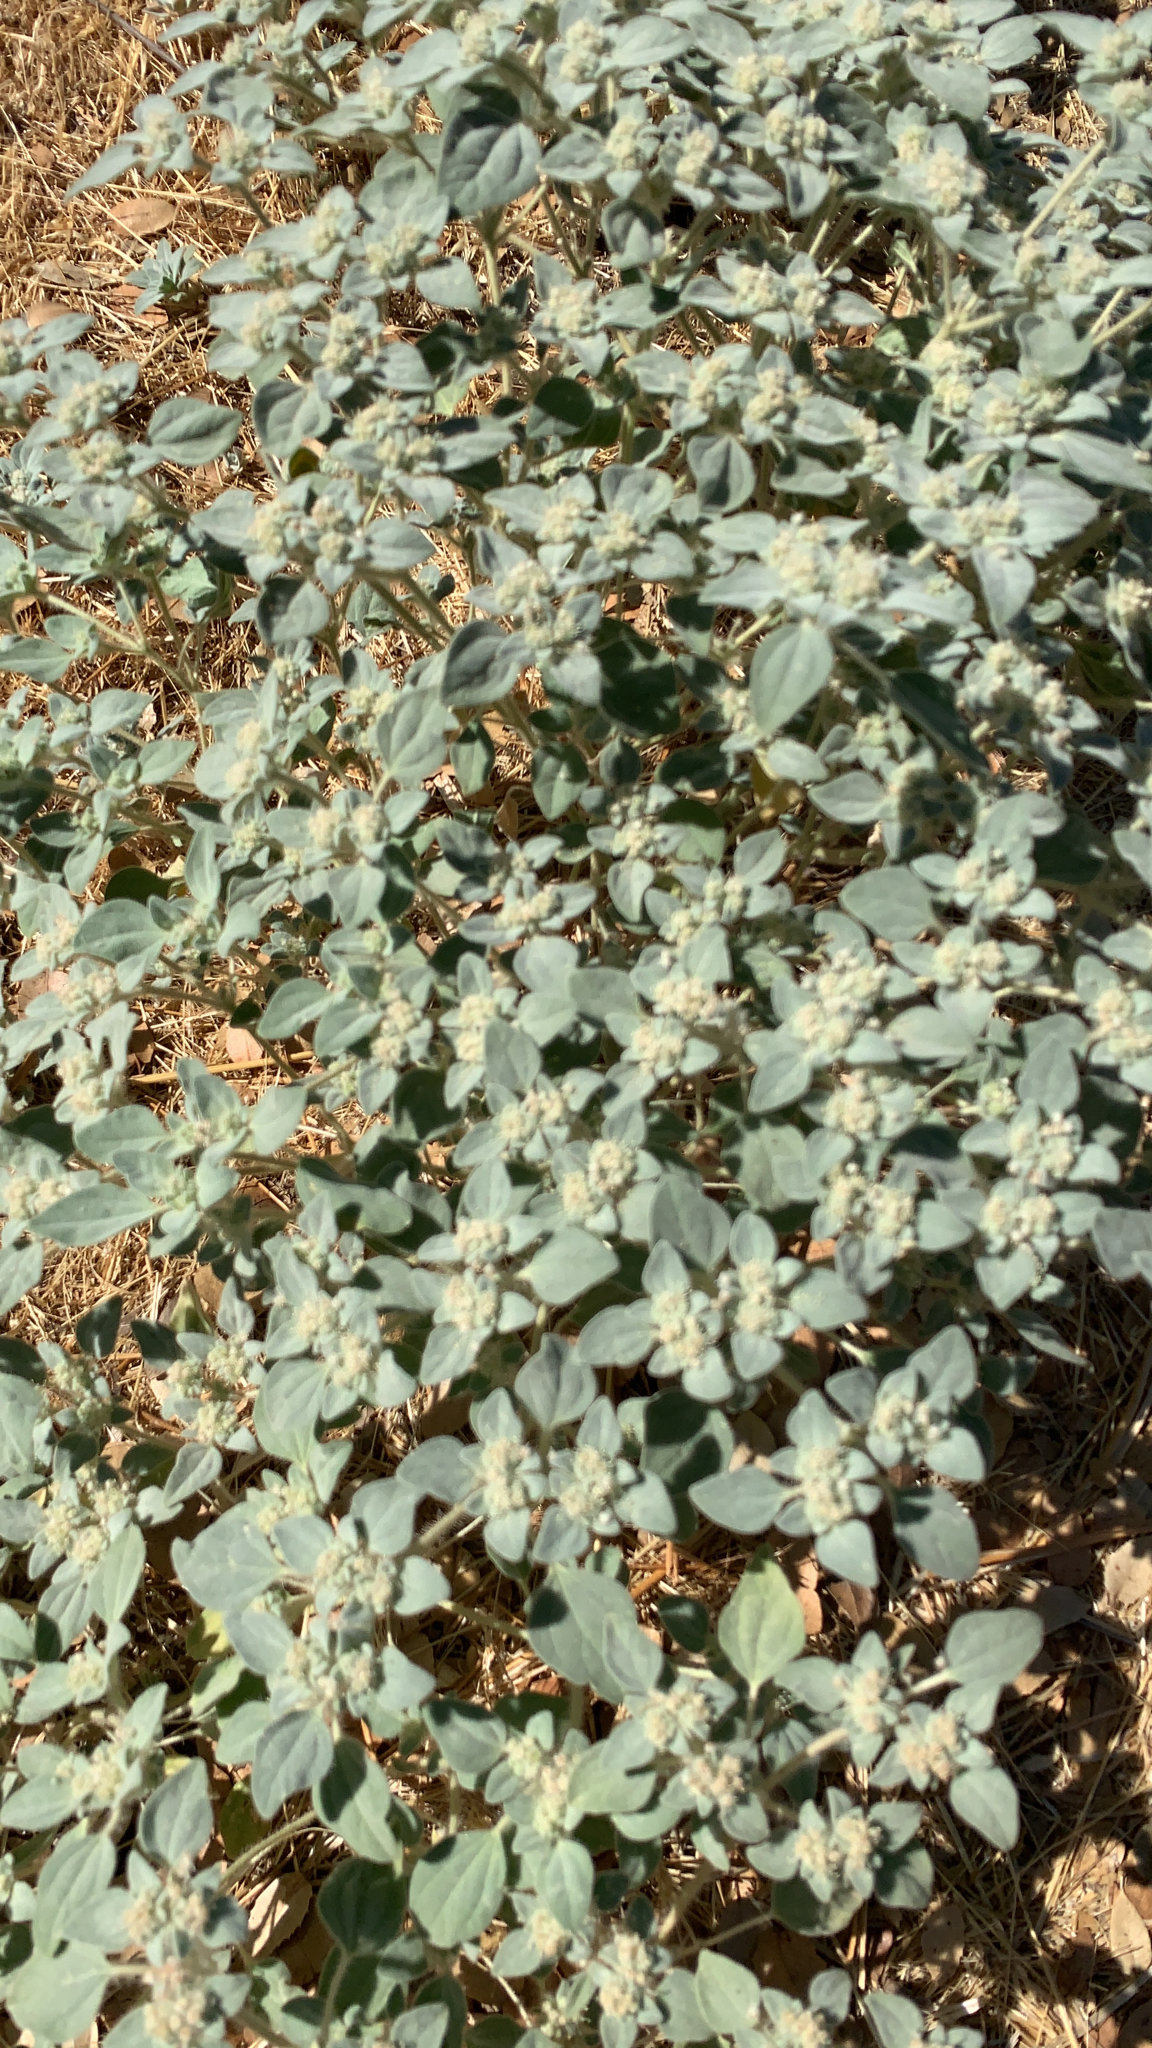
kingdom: Plantae
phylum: Tracheophyta
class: Magnoliopsida
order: Malpighiales
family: Euphorbiaceae
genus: Croton
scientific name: Croton setiger
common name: Dove weed
